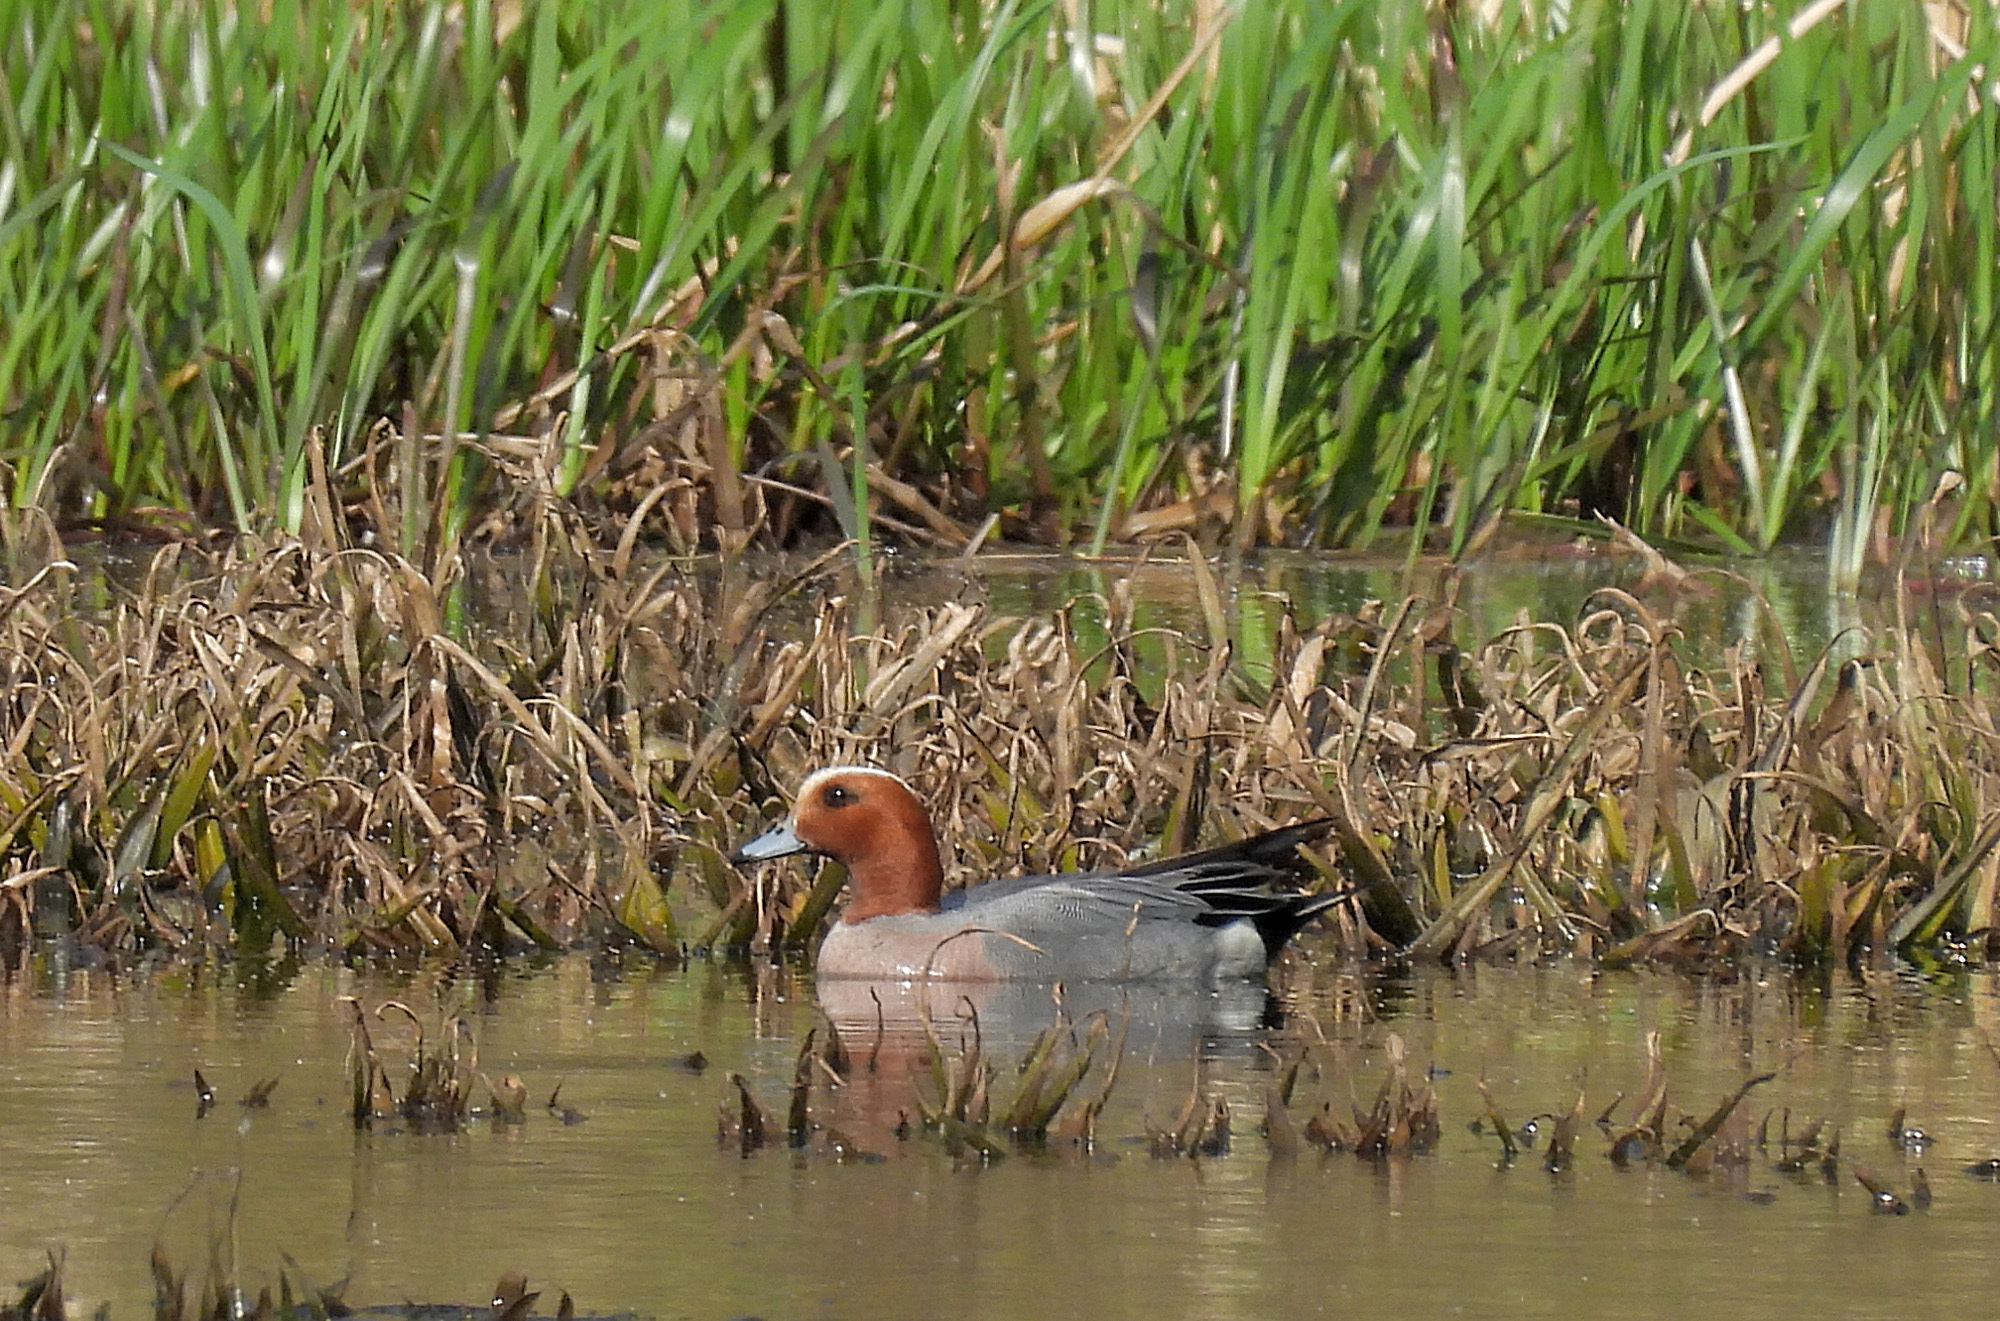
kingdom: Animalia
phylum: Chordata
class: Aves
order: Anseriformes
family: Anatidae
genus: Mareca
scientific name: Mareca penelope
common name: Eurasian wigeon
